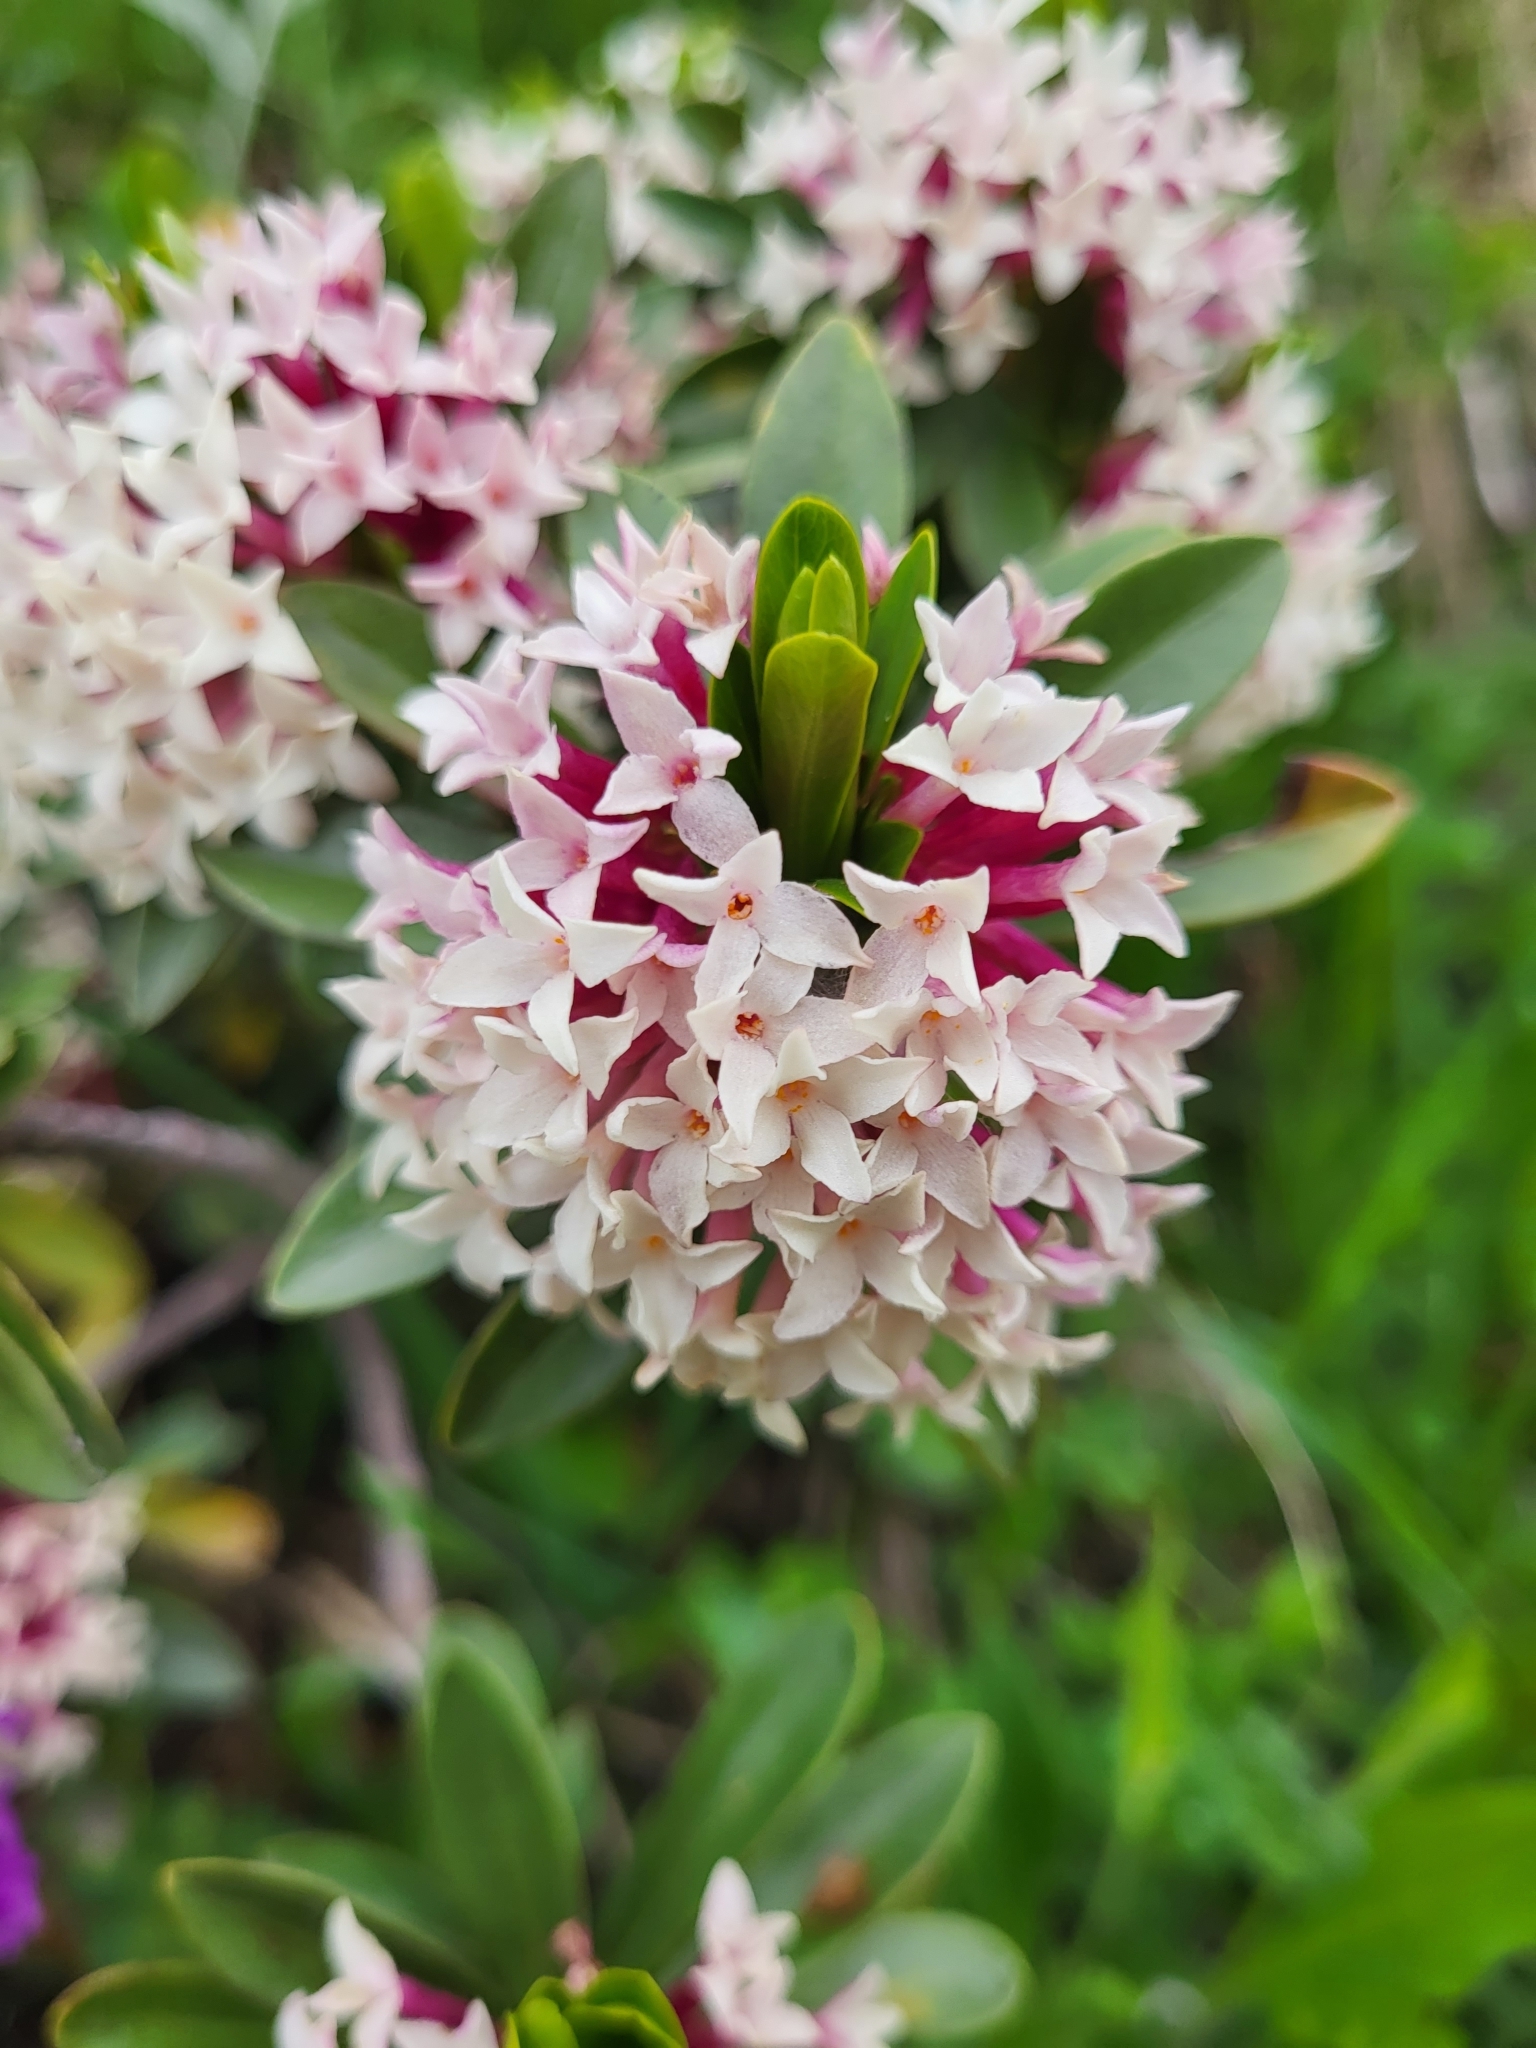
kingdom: Plantae
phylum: Tracheophyta
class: Magnoliopsida
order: Malvales
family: Thymelaeaceae
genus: Daphne
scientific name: Daphne glomerata
